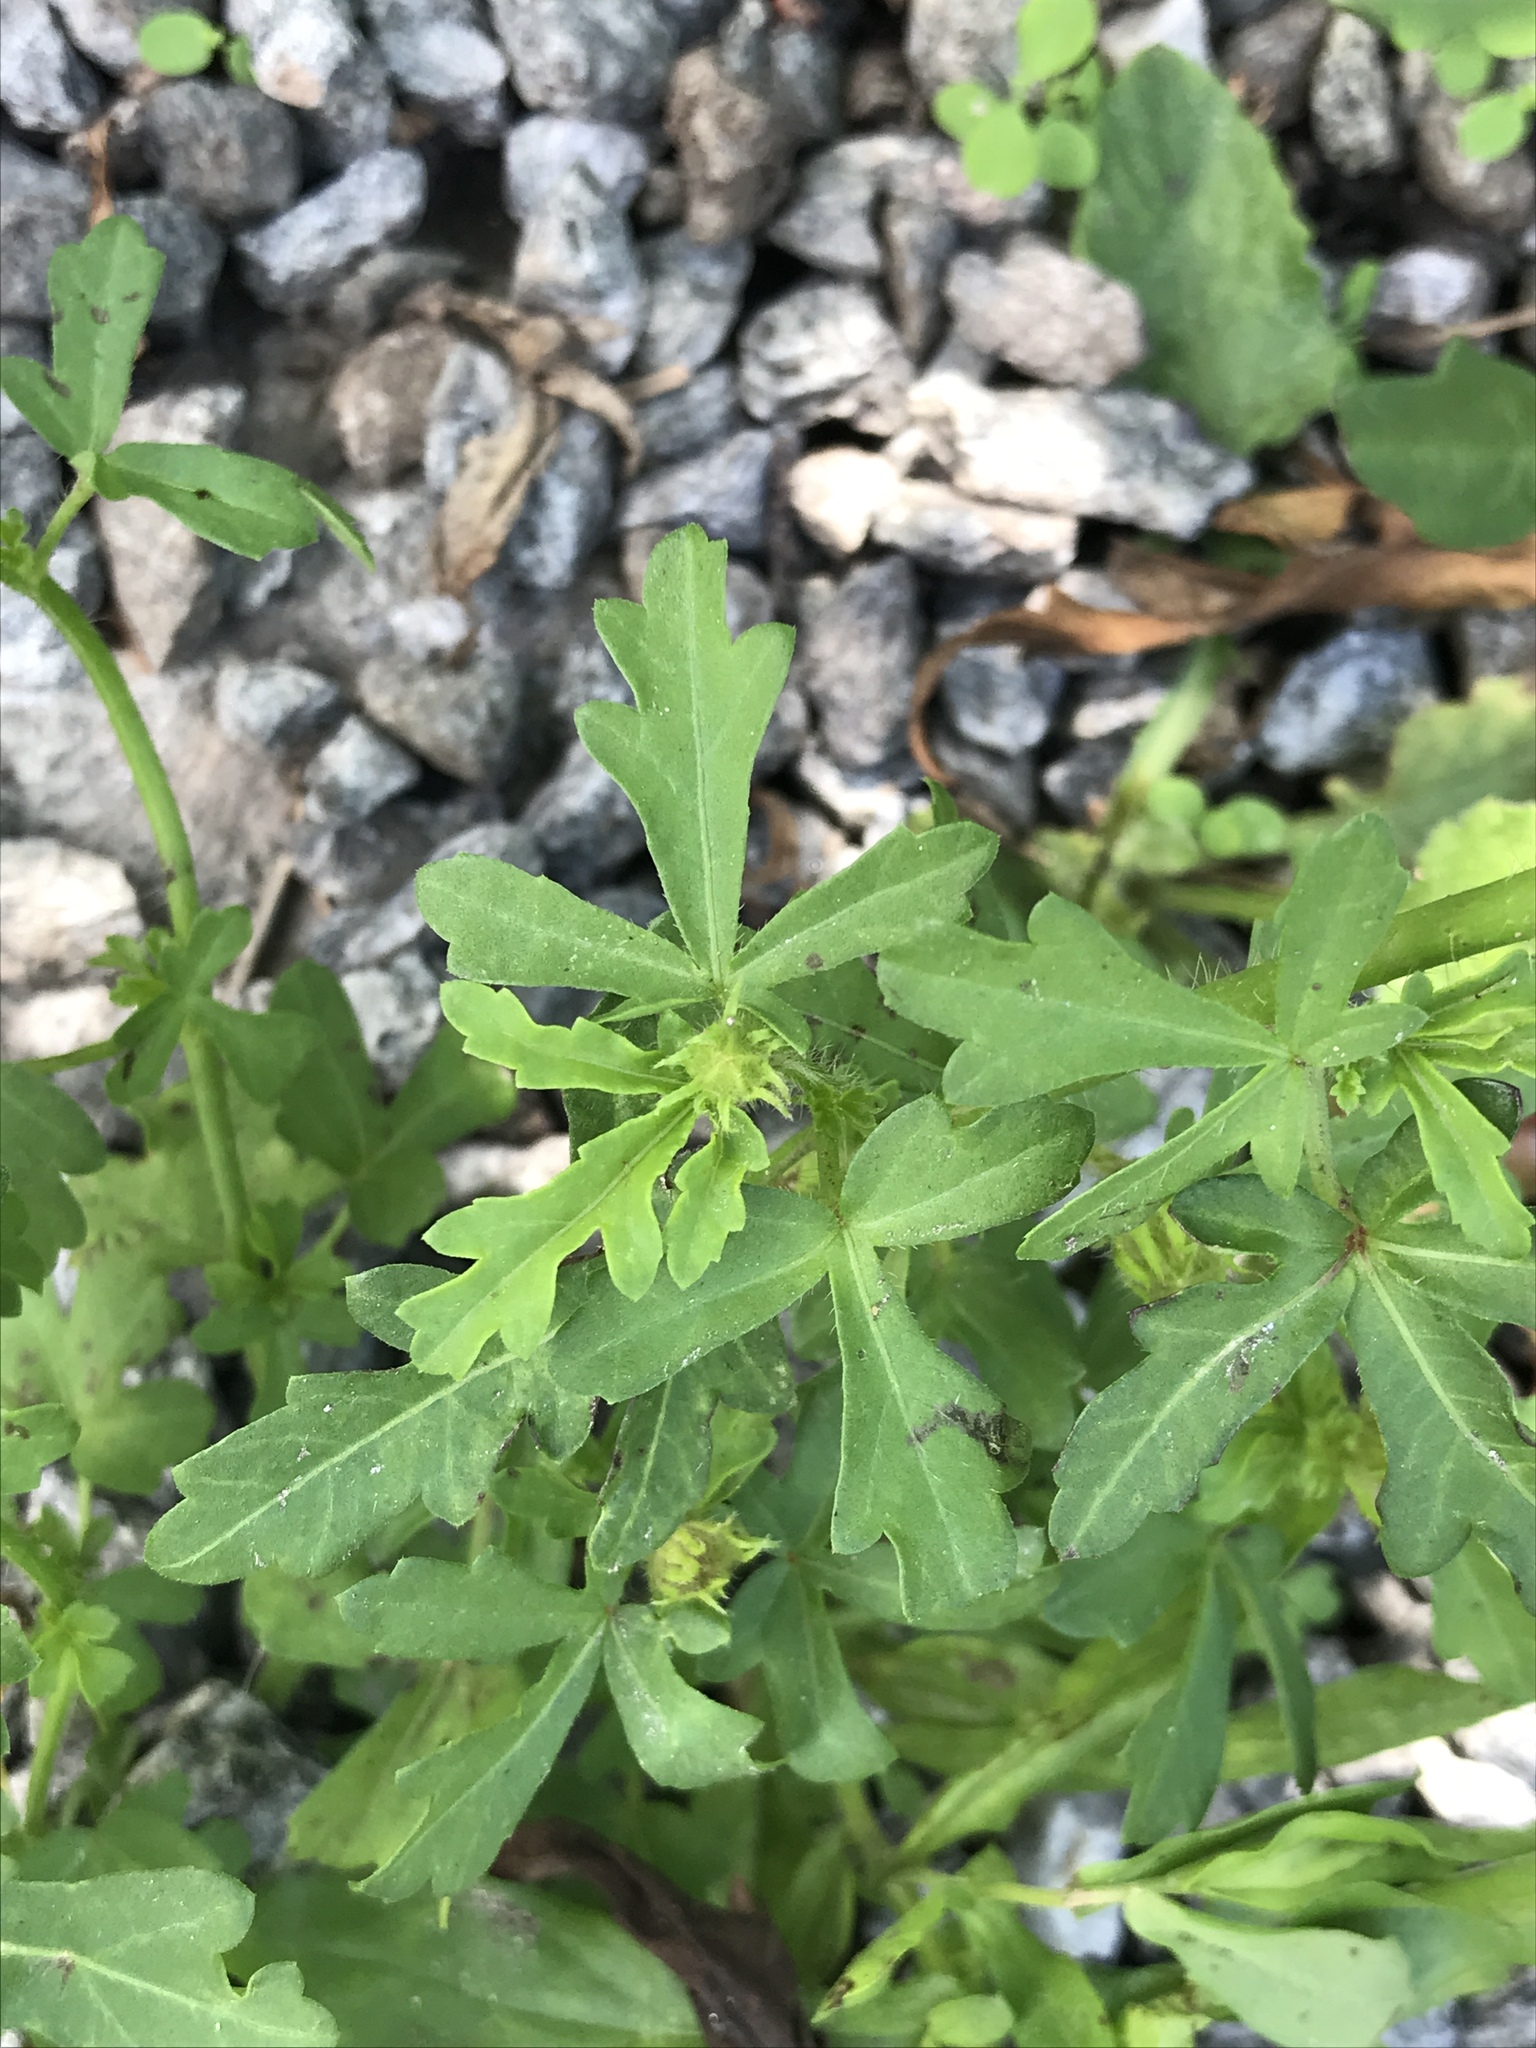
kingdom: Plantae
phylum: Tracheophyta
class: Magnoliopsida
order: Malvales
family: Malvaceae
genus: Hibiscus
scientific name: Hibiscus trionum
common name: Bladder ketmia
